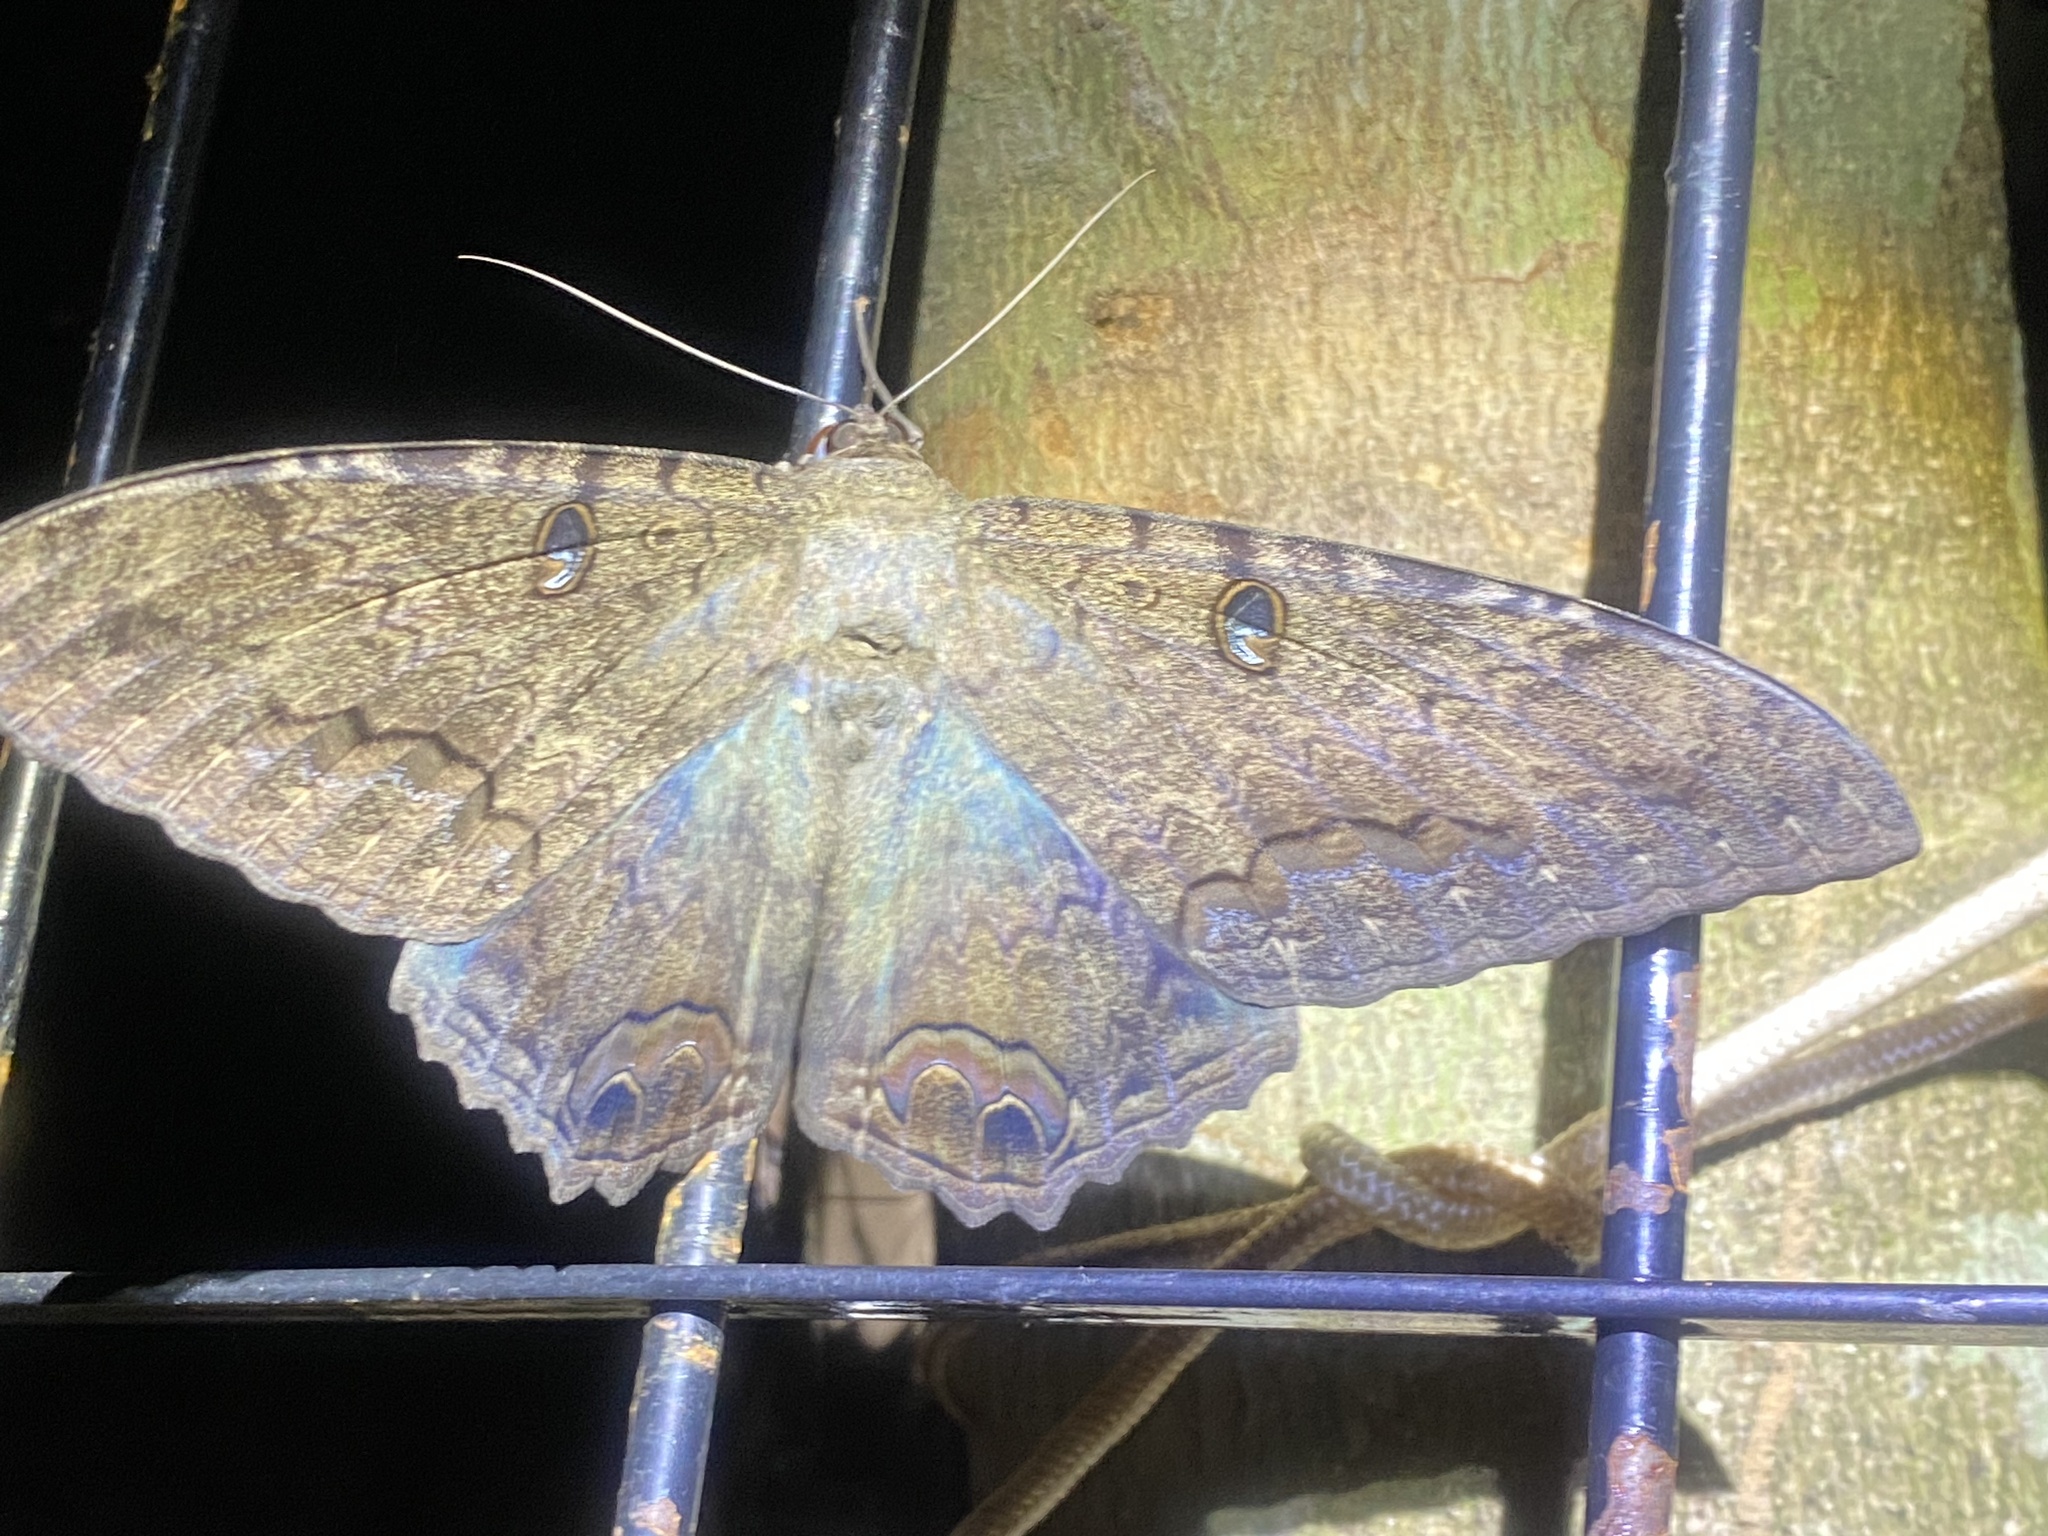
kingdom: Animalia
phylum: Arthropoda
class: Insecta
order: Lepidoptera
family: Erebidae
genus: Ascalapha
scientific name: Ascalapha odorata
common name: Black witch
